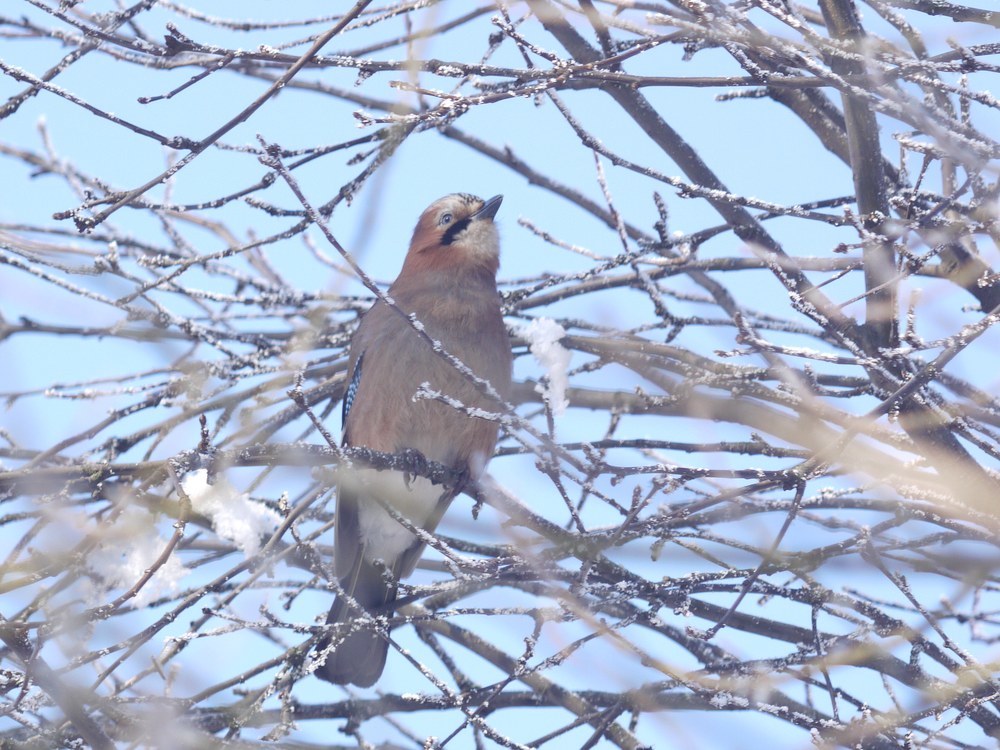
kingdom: Animalia
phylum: Chordata
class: Aves
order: Passeriformes
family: Corvidae
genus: Garrulus
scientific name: Garrulus glandarius
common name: Eurasian jay
